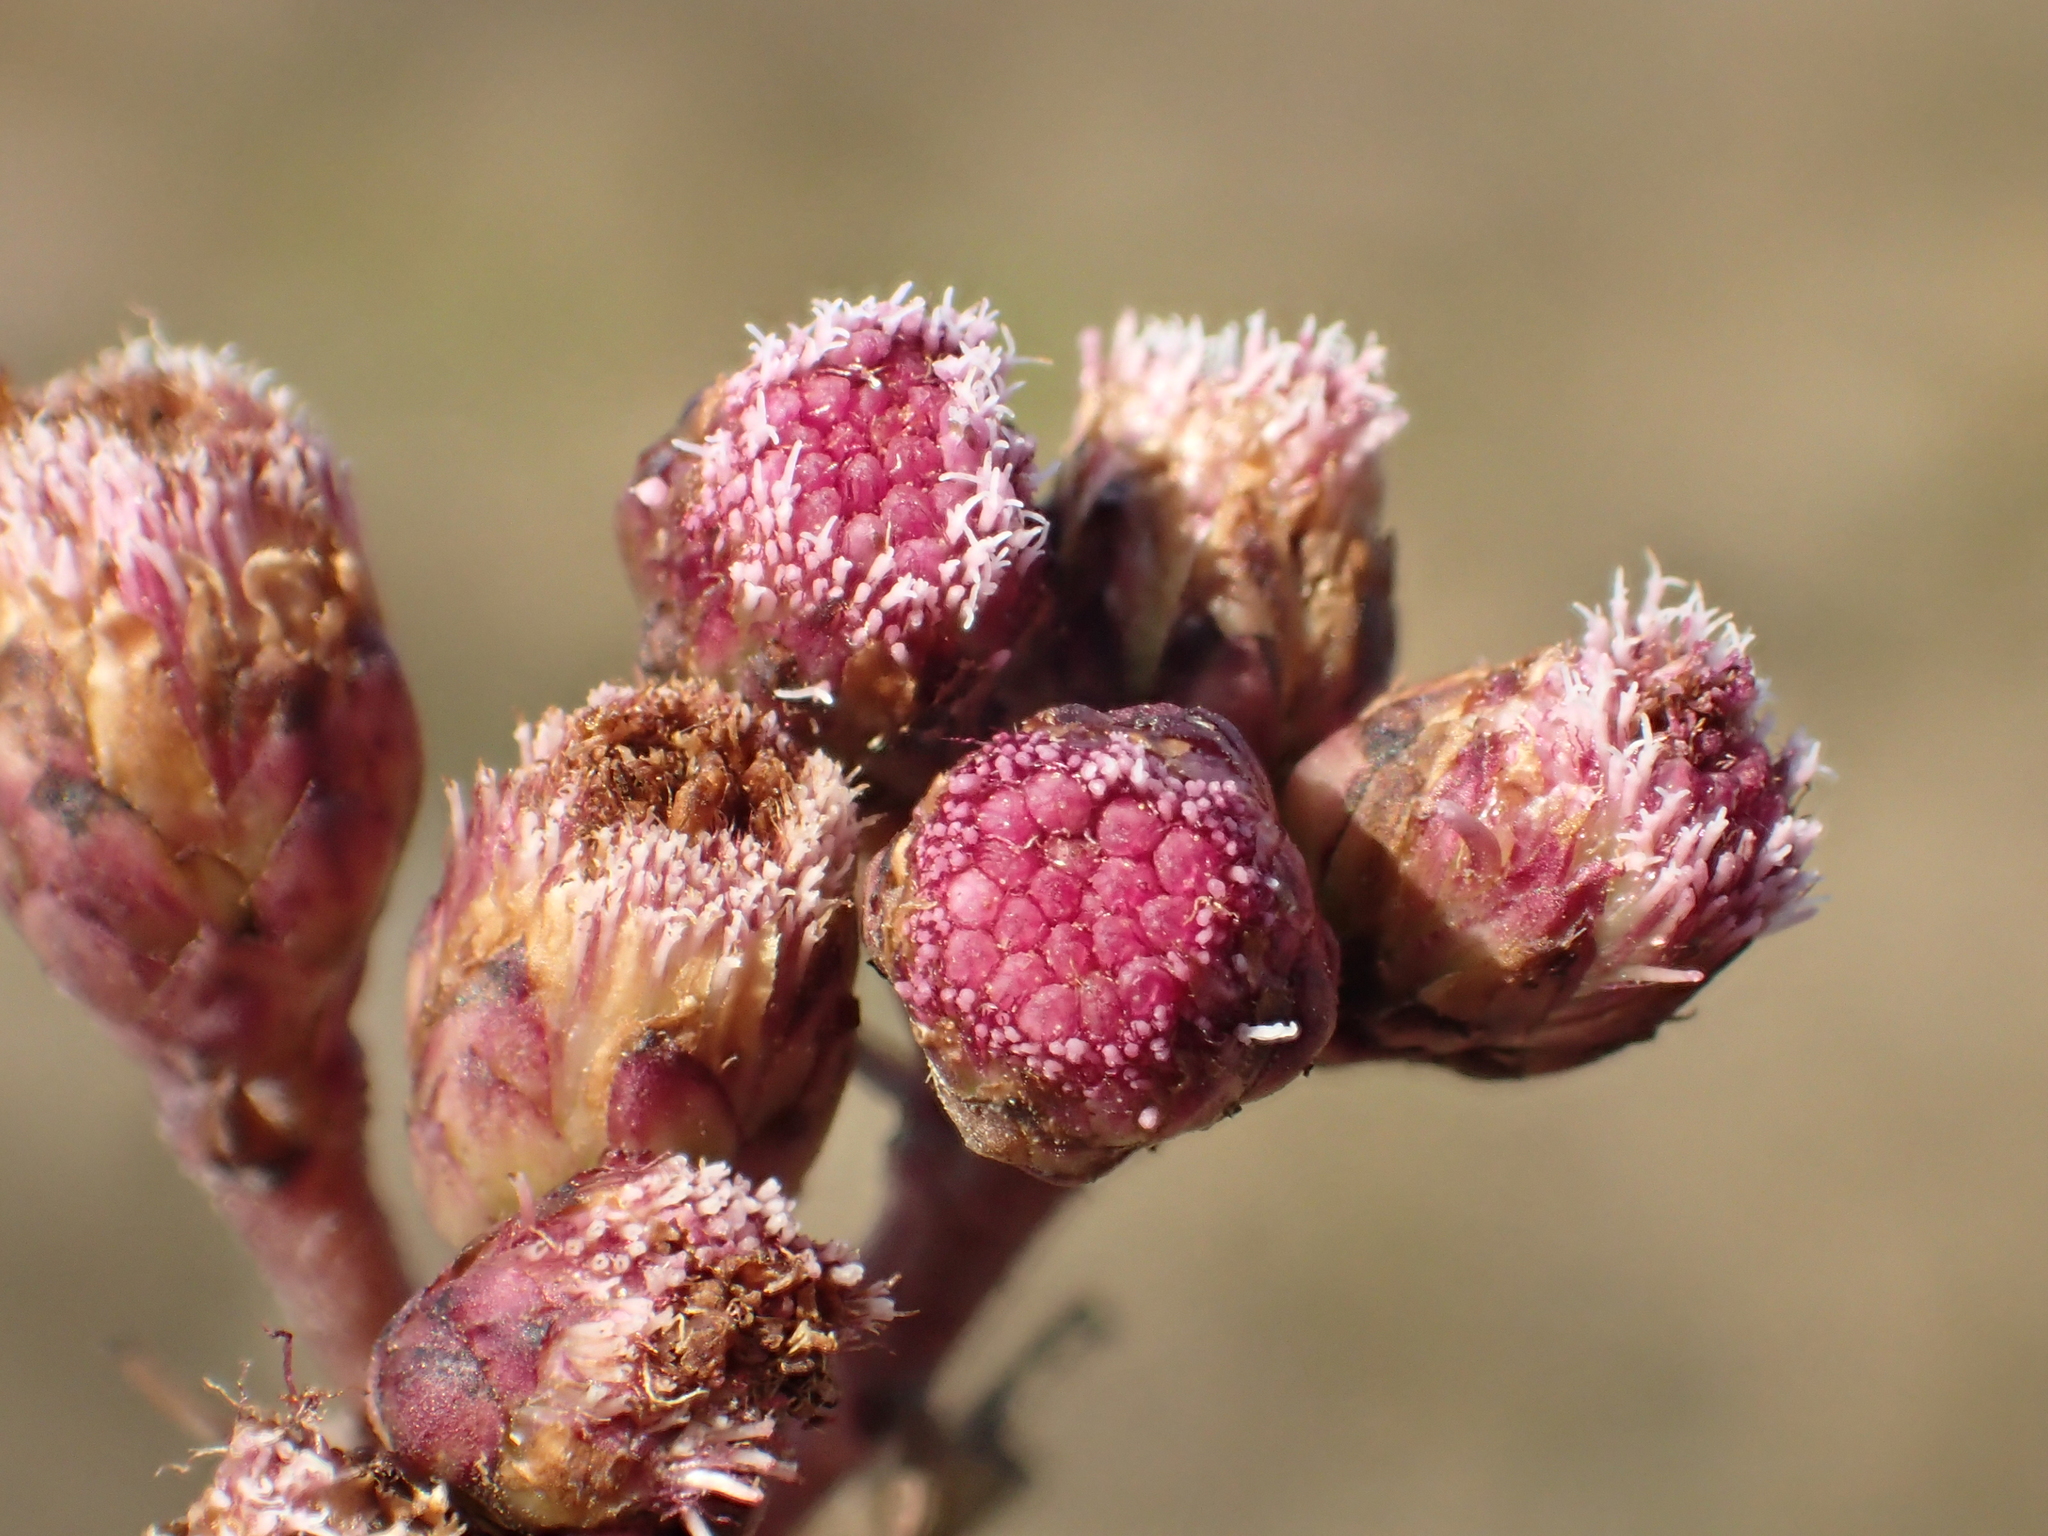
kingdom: Plantae
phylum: Tracheophyta
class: Magnoliopsida
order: Asterales
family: Asteraceae
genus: Pluchea
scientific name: Pluchea pteropoda
